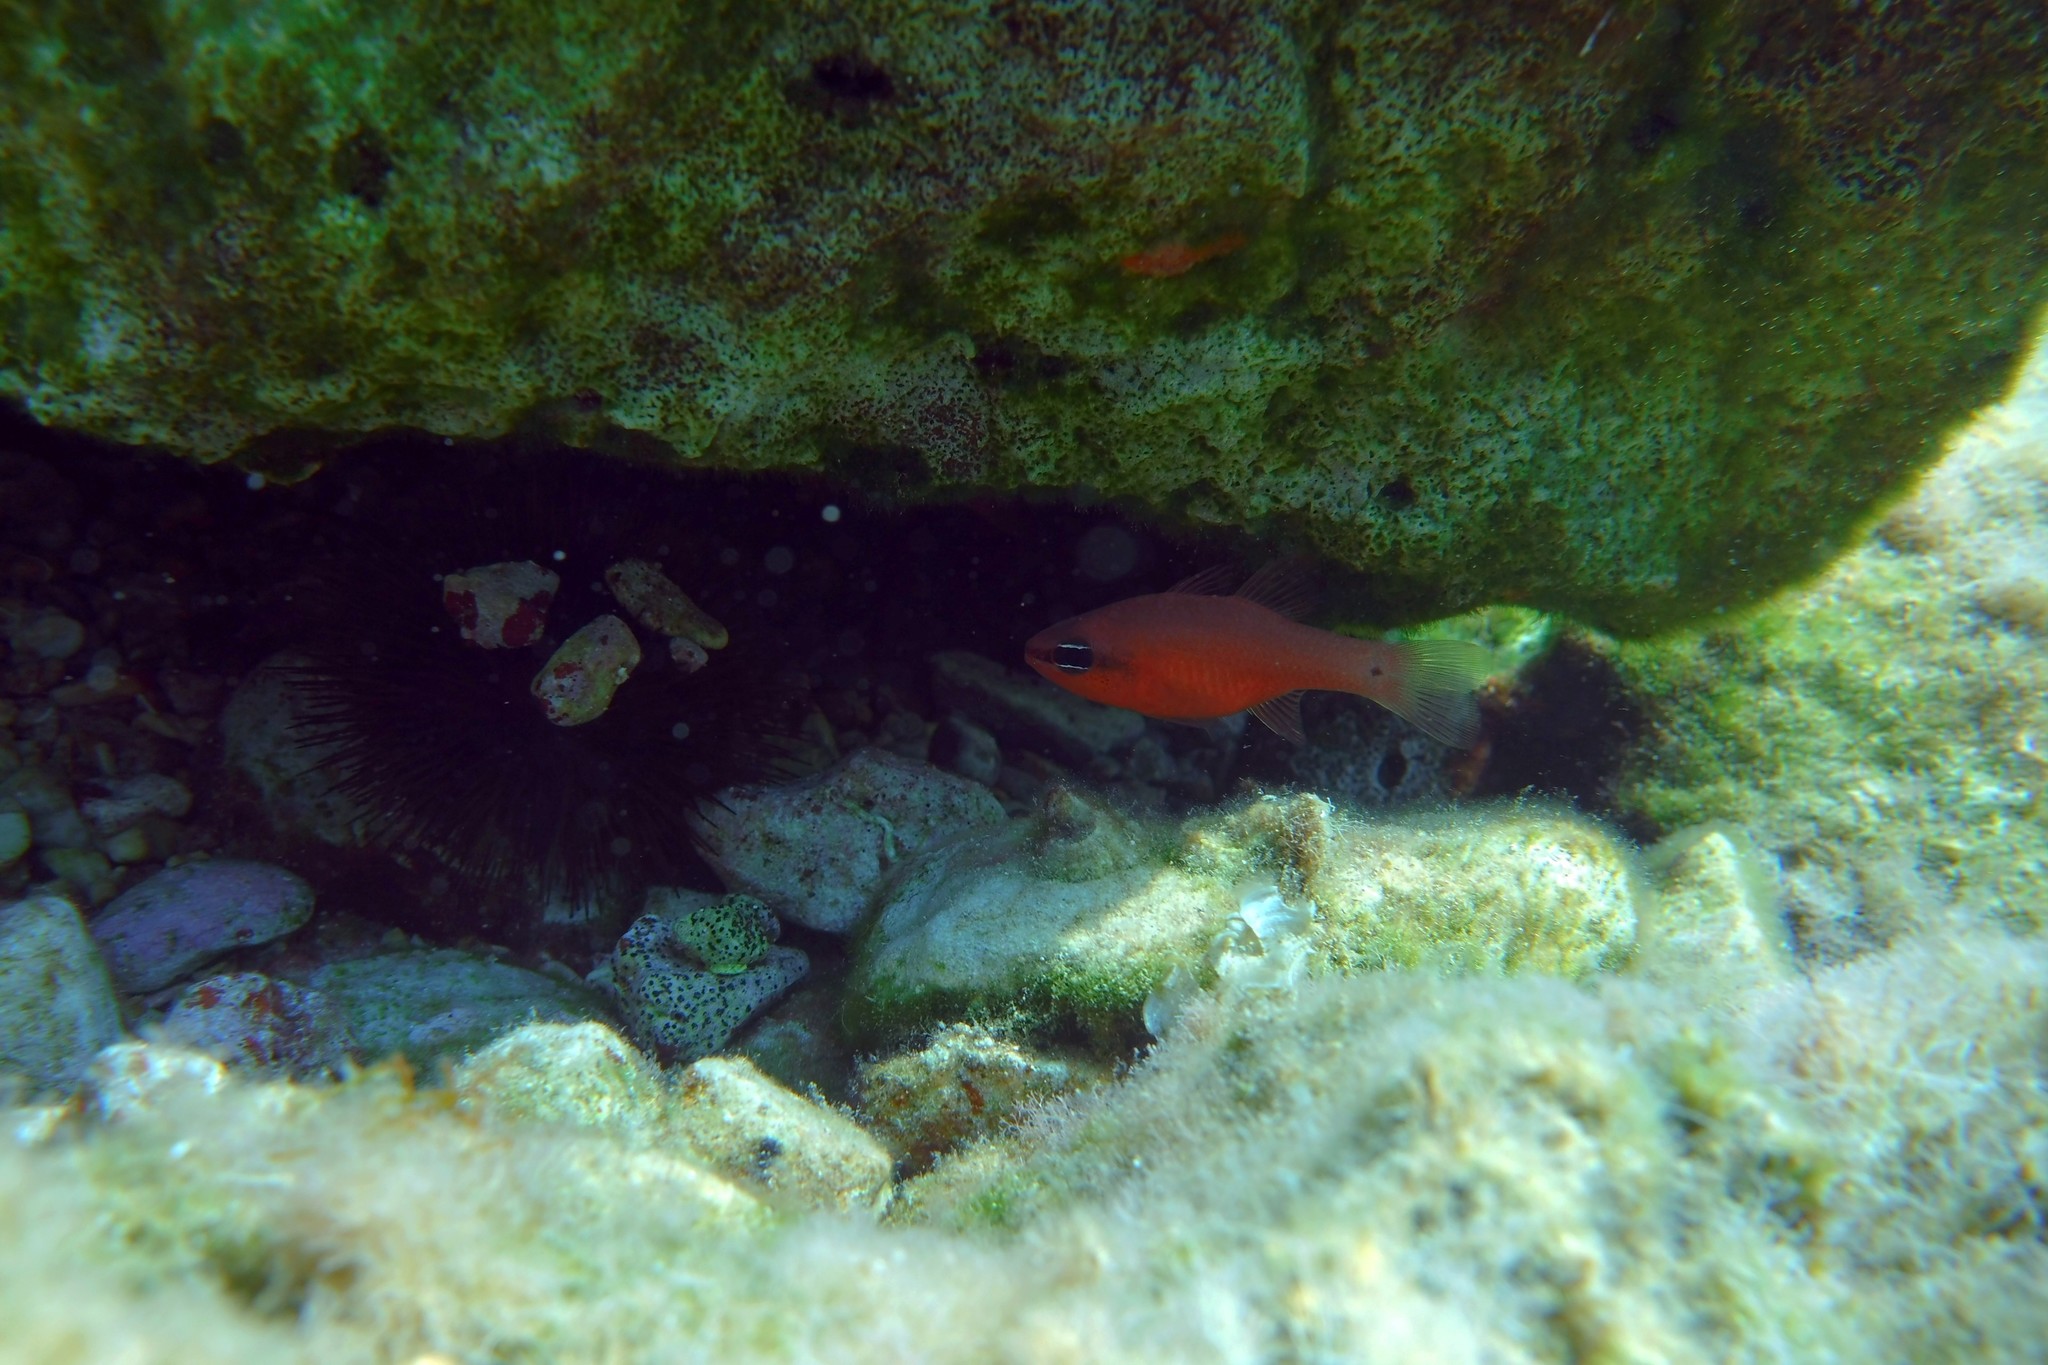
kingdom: Animalia
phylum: Chordata
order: Perciformes
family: Apogonidae
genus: Apogon
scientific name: Apogon imberbis
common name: Cardinal fish
